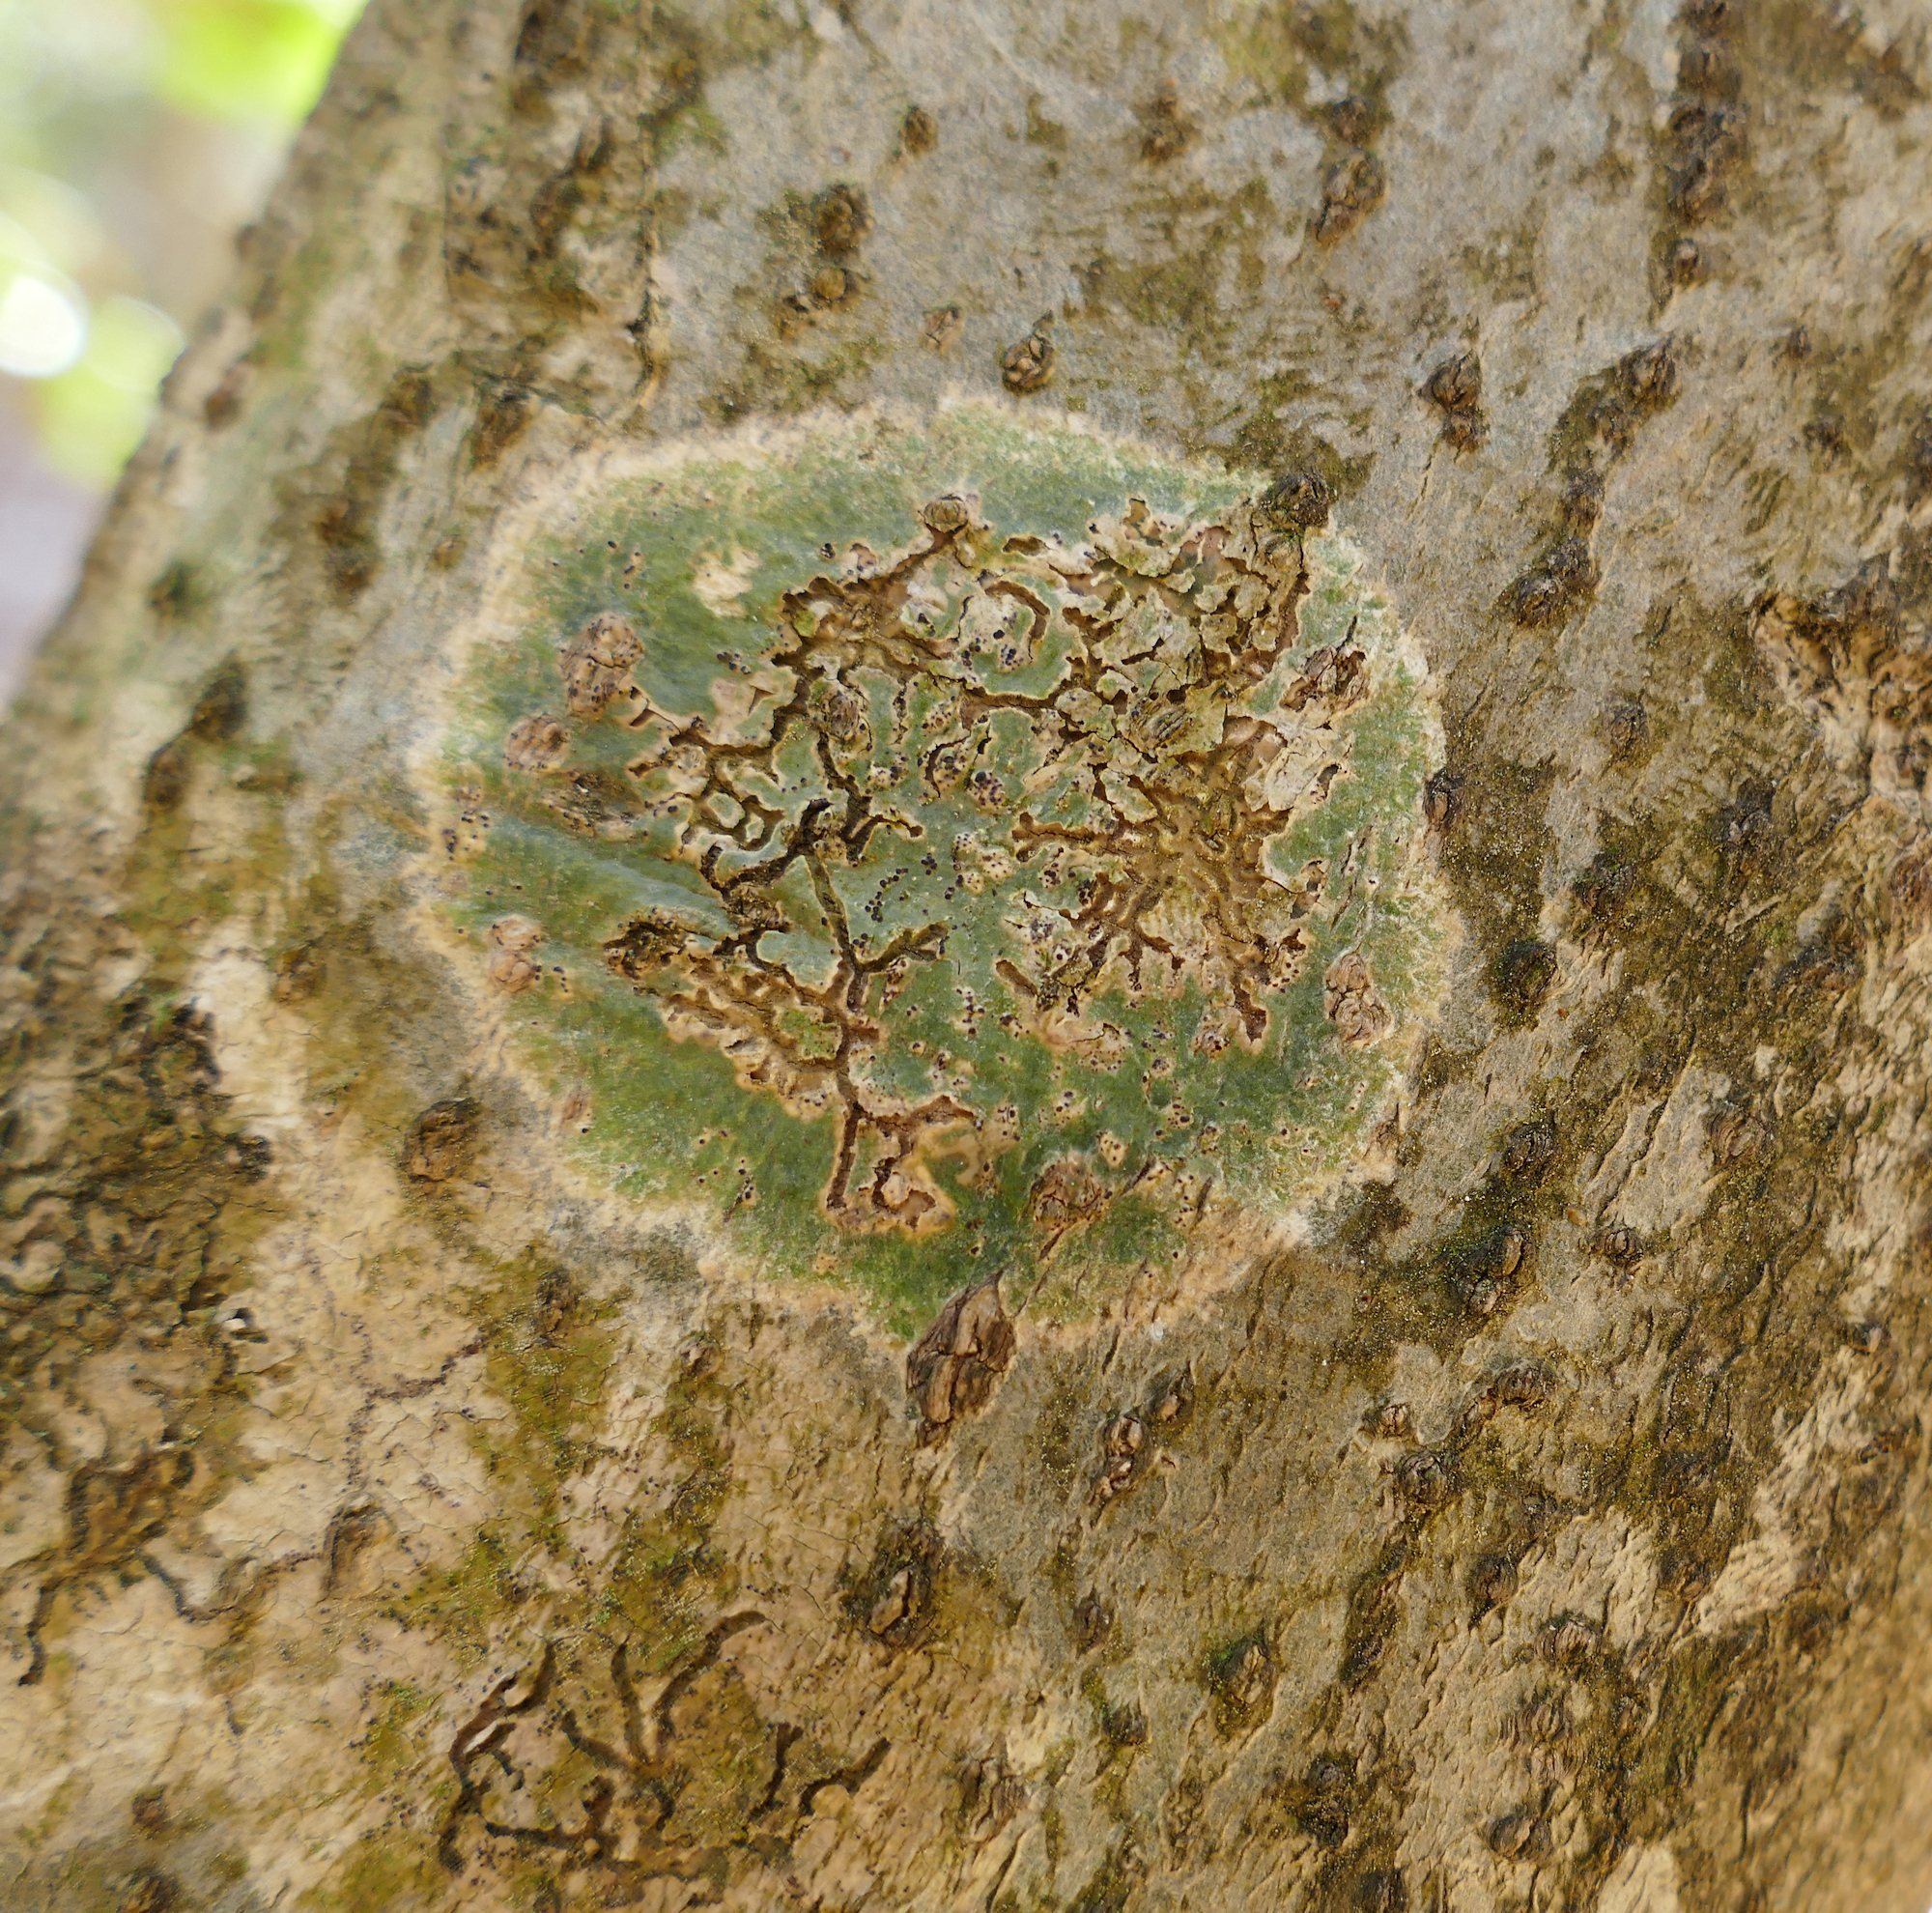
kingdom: Fungi
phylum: Ascomycota
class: Dothideomycetes
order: Trypetheliales
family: Trypetheliaceae
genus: Viridothelium
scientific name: Viridothelium virens
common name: Speckled blister lichen
